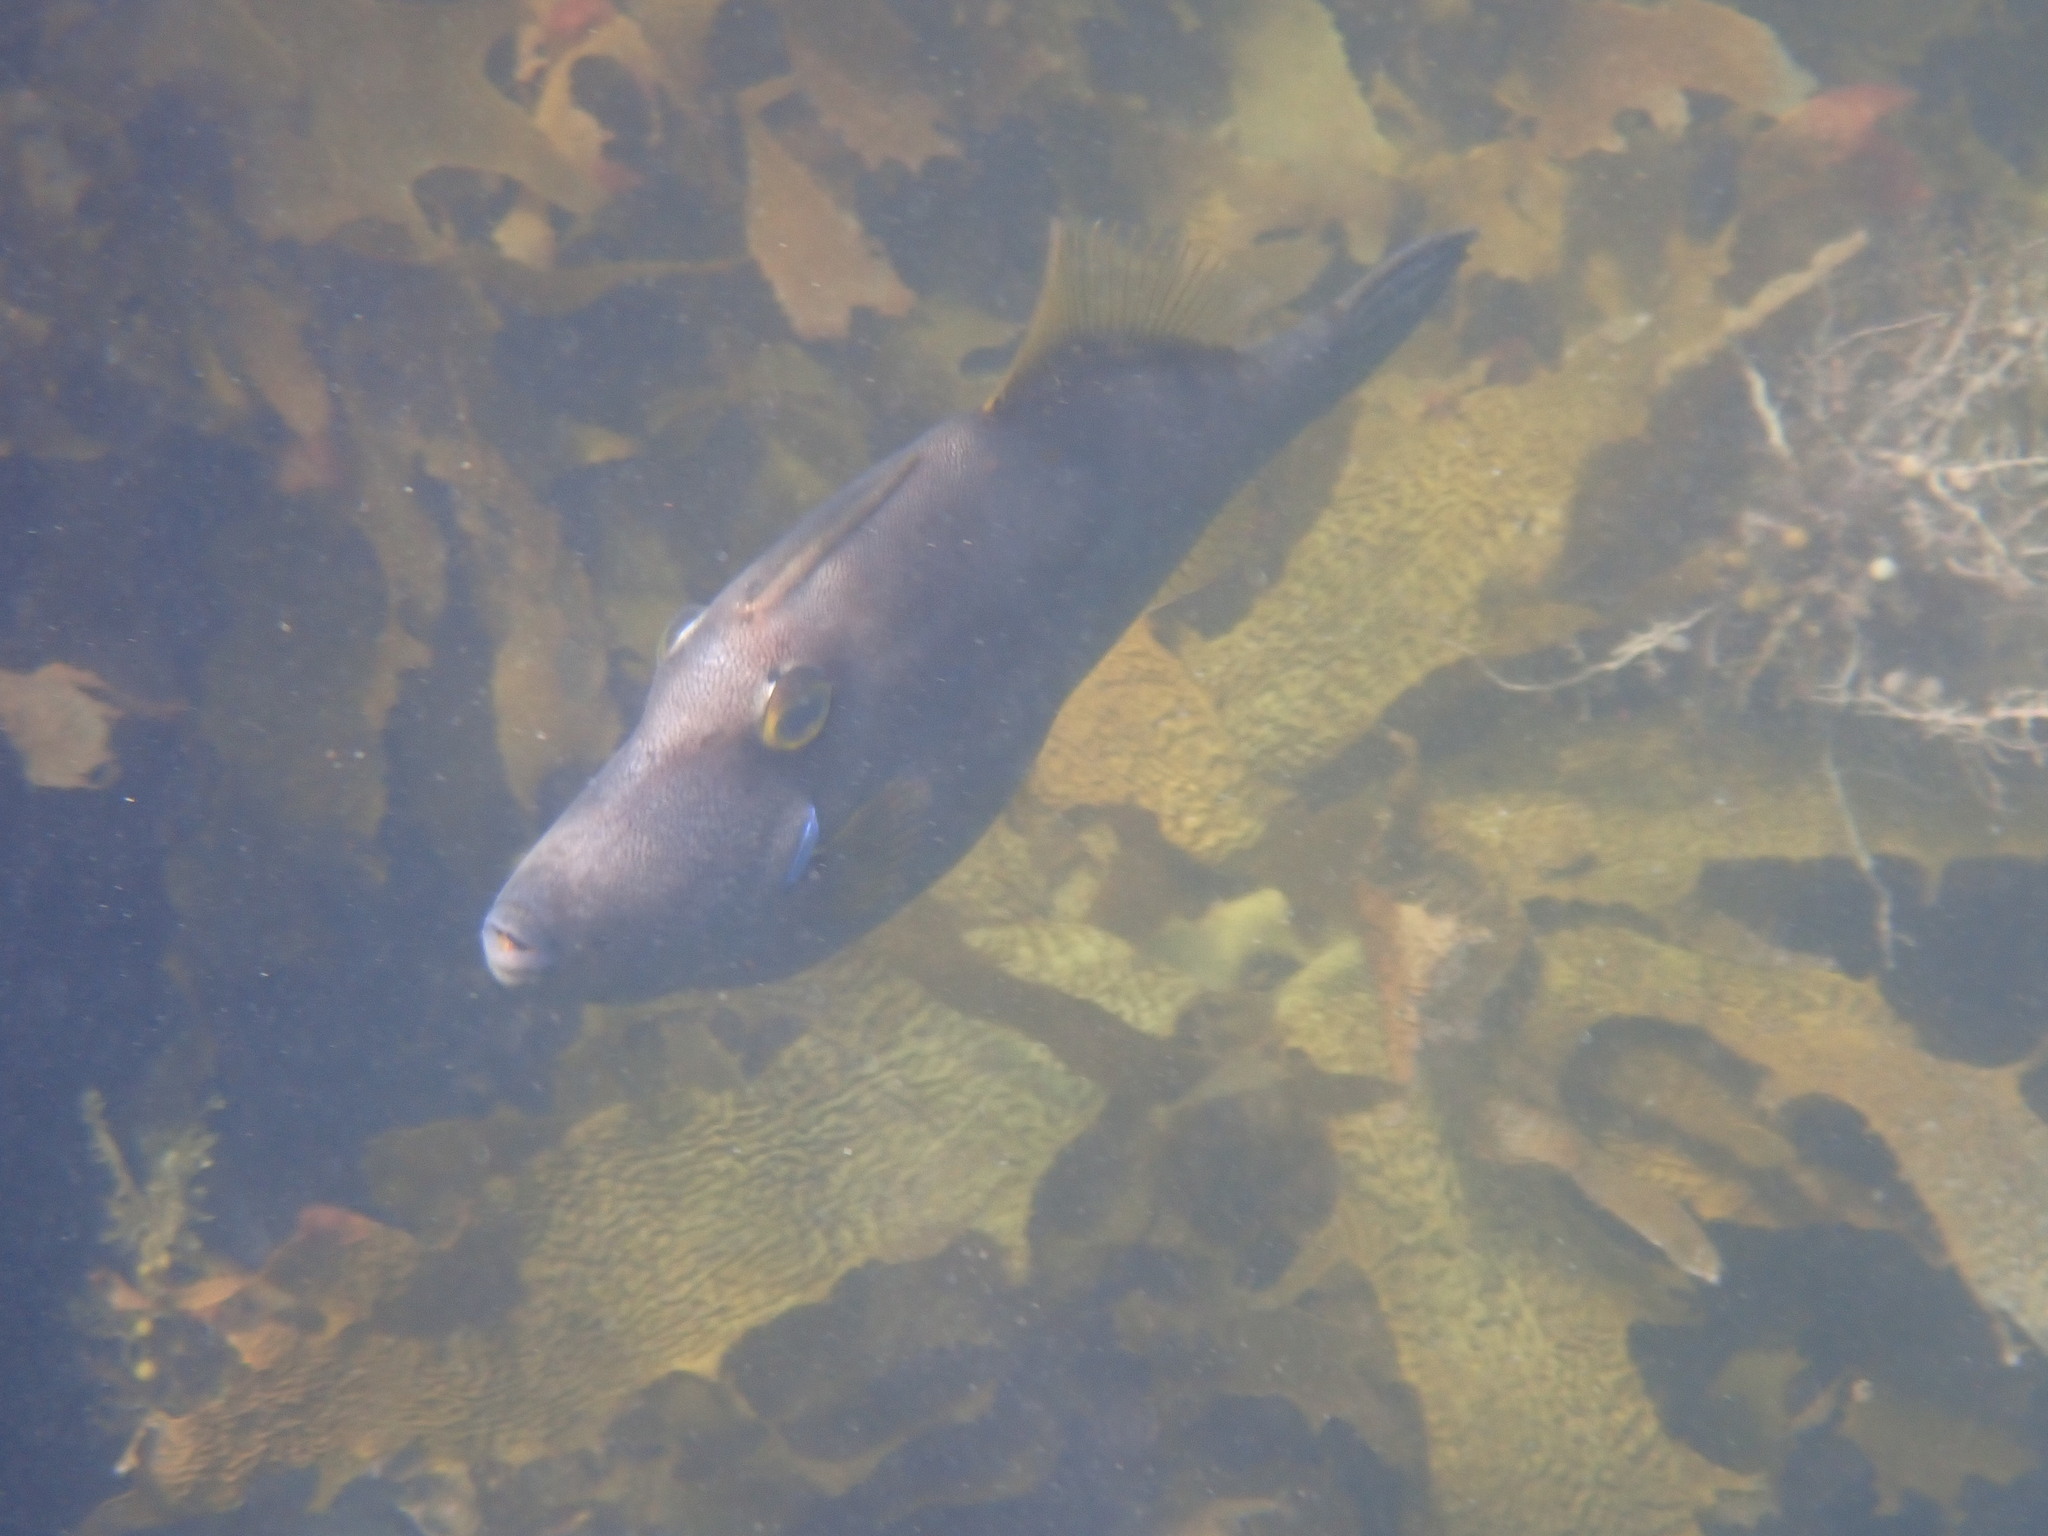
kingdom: Animalia
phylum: Chordata
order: Tetraodontiformes
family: Monacanthidae
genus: Meuschenia
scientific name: Meuschenia scaber
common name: Cosmopolitan leatherjacket
